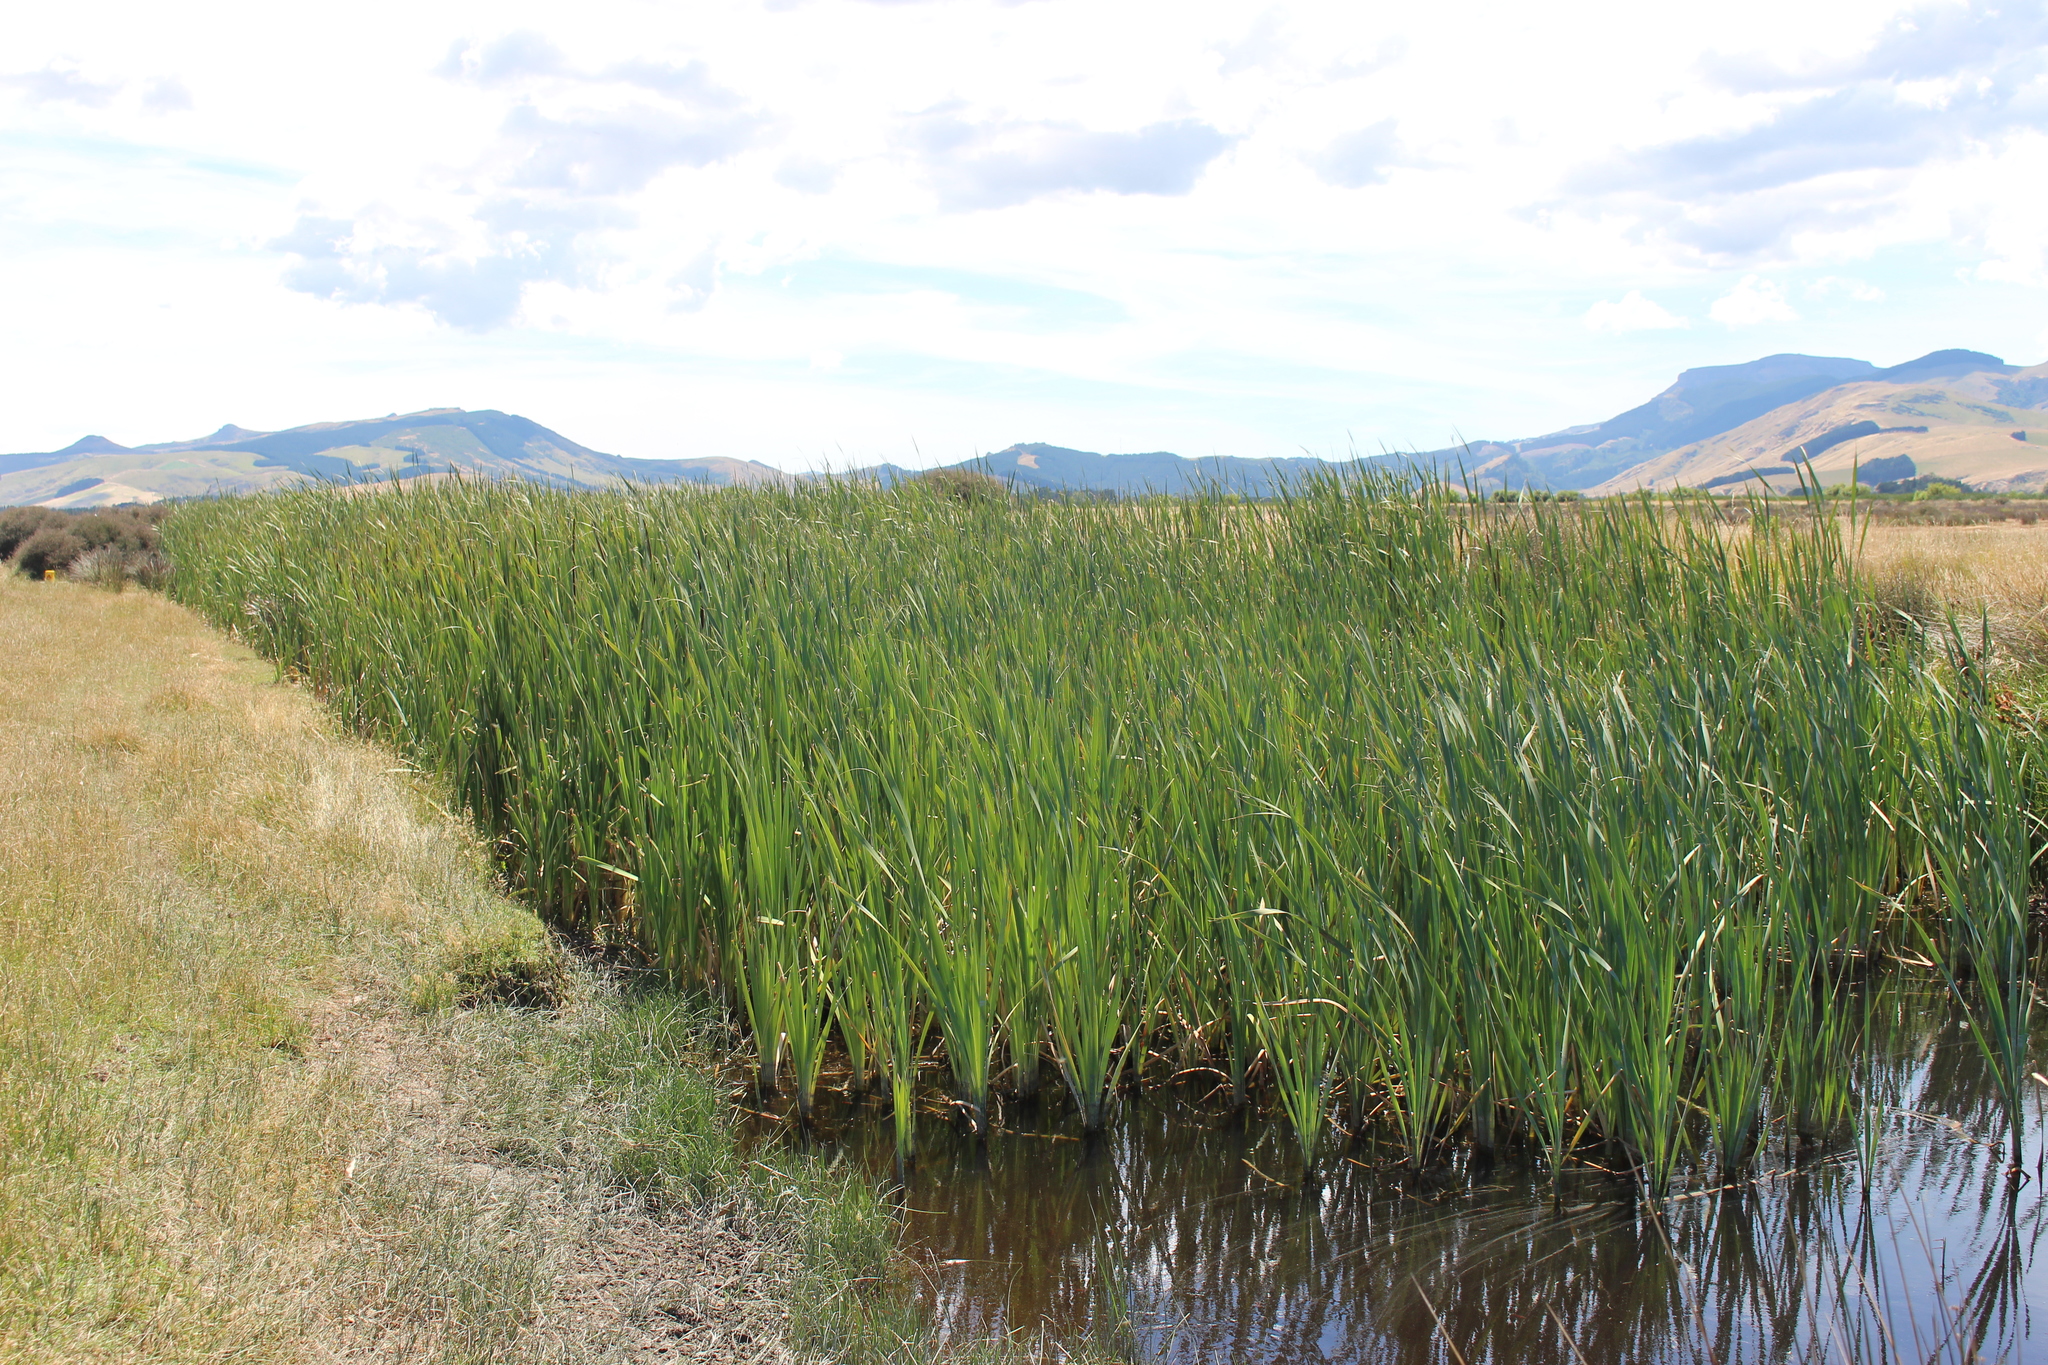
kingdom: Plantae
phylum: Tracheophyta
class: Liliopsida
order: Poales
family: Typhaceae
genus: Typha
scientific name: Typha orientalis
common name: Bullrush
